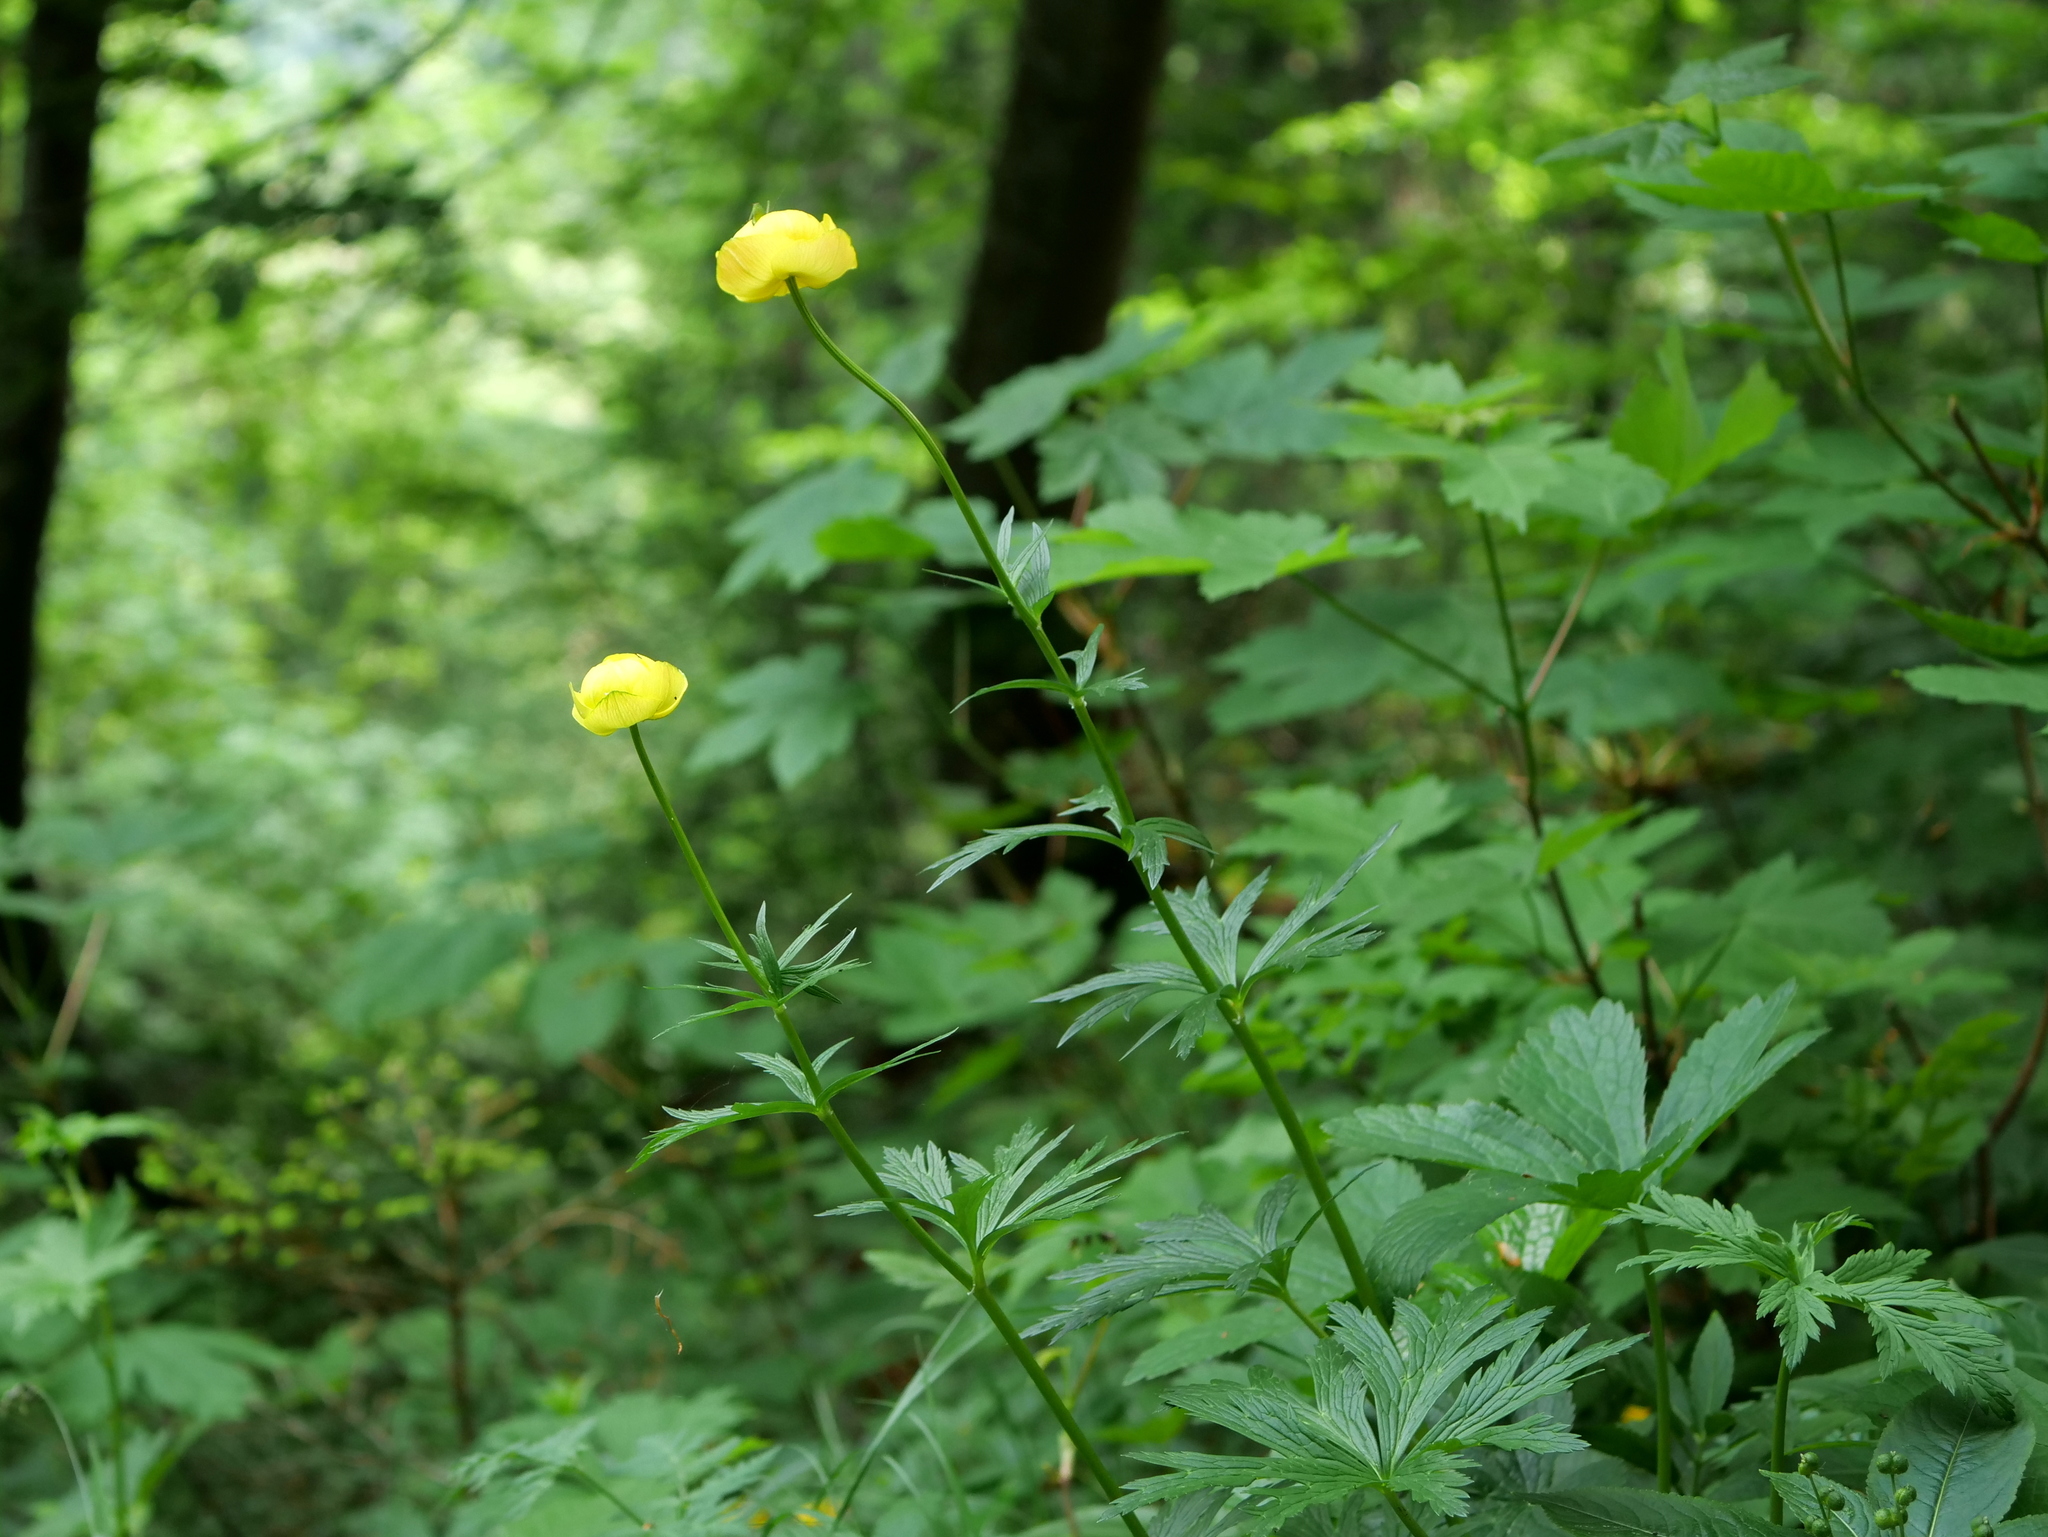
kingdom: Plantae
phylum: Tracheophyta
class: Magnoliopsida
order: Ranunculales
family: Ranunculaceae
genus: Trollius
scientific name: Trollius europaeus
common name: European globeflower
